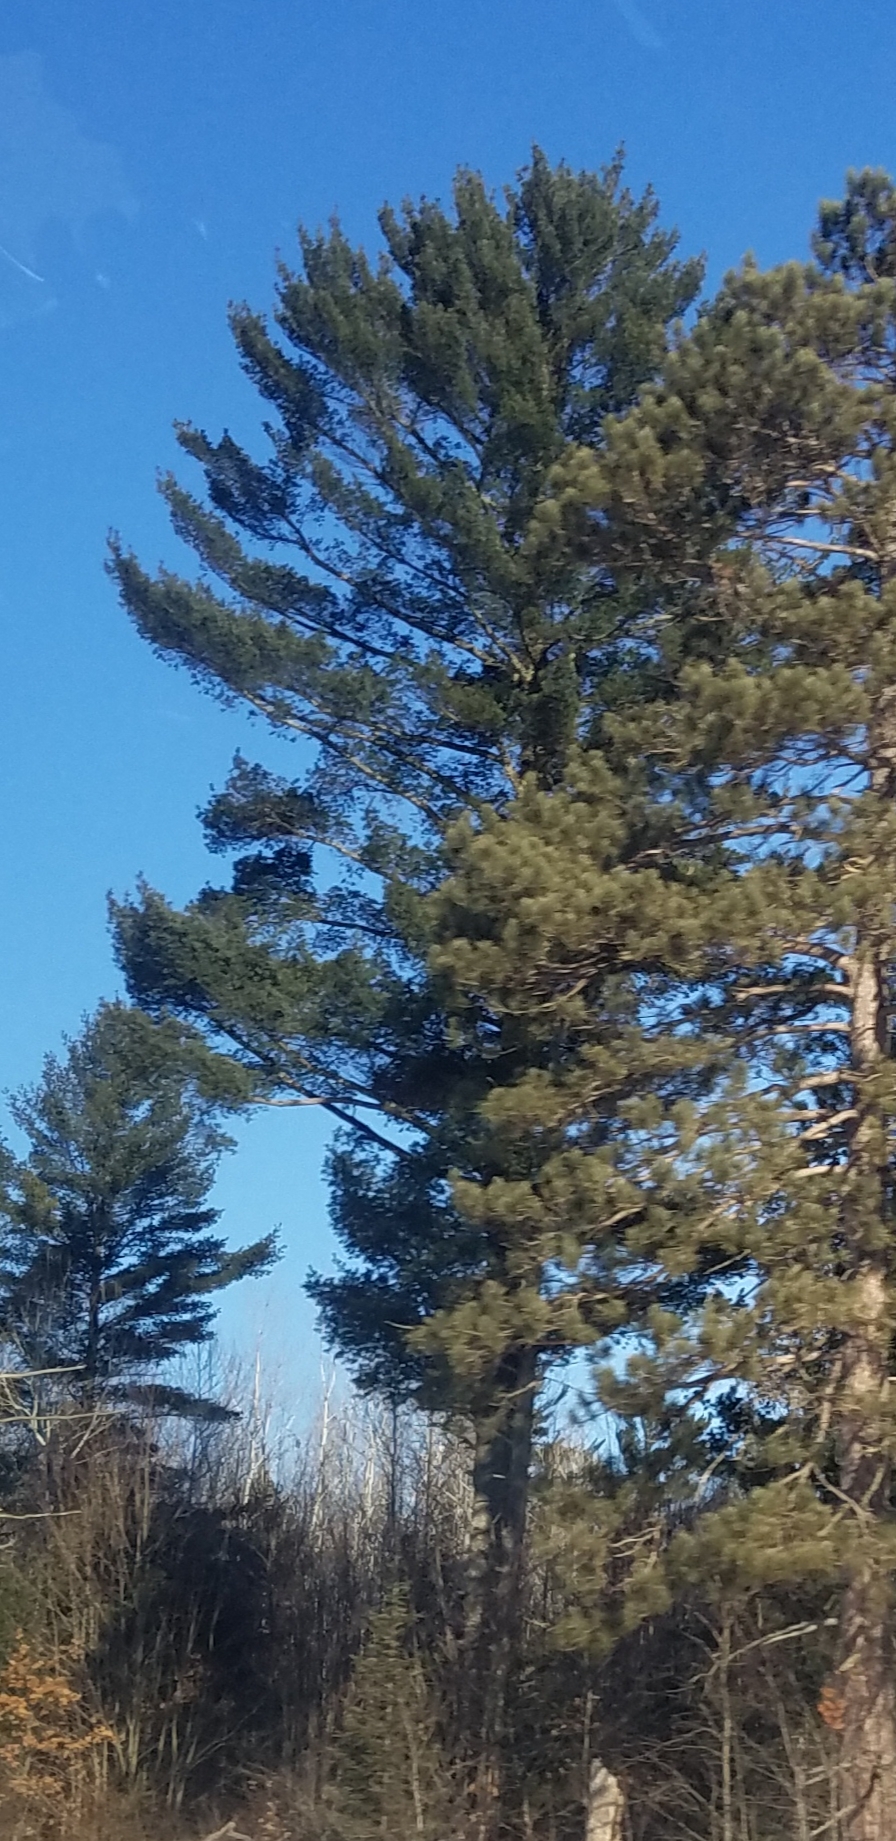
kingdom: Plantae
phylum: Tracheophyta
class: Pinopsida
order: Pinales
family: Pinaceae
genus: Pinus
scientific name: Pinus strobus
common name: Weymouth pine
